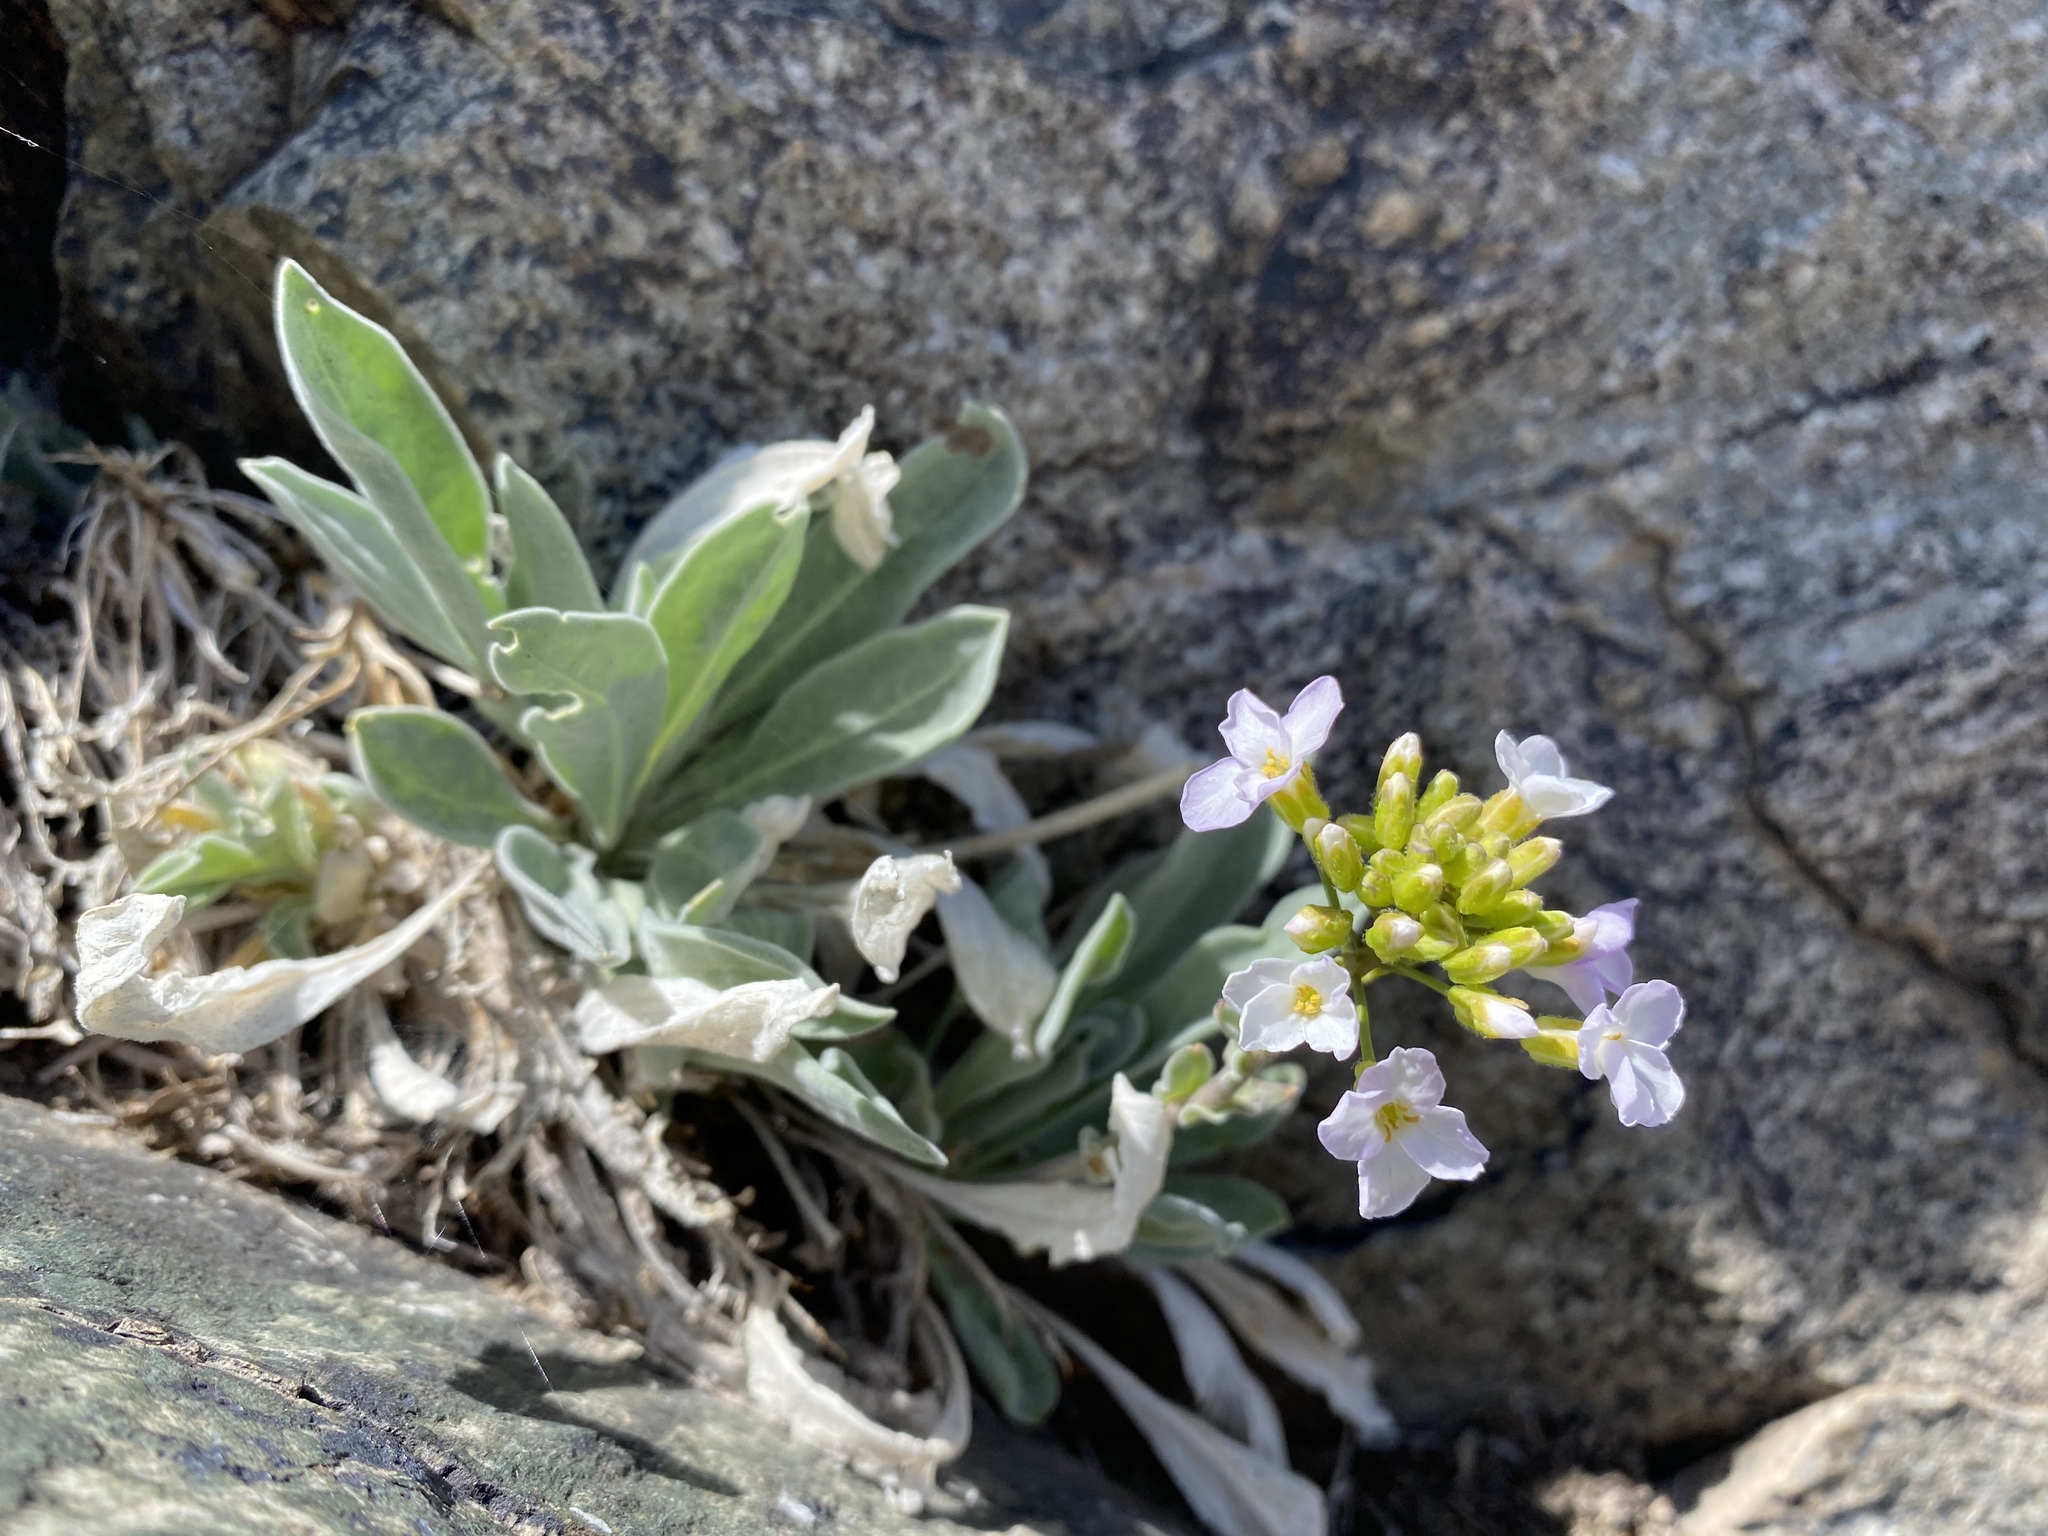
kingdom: Plantae
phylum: Tracheophyta
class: Magnoliopsida
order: Brassicales
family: Brassicaceae
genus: Phoenicaulis
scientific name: Phoenicaulis cheiranthoides
